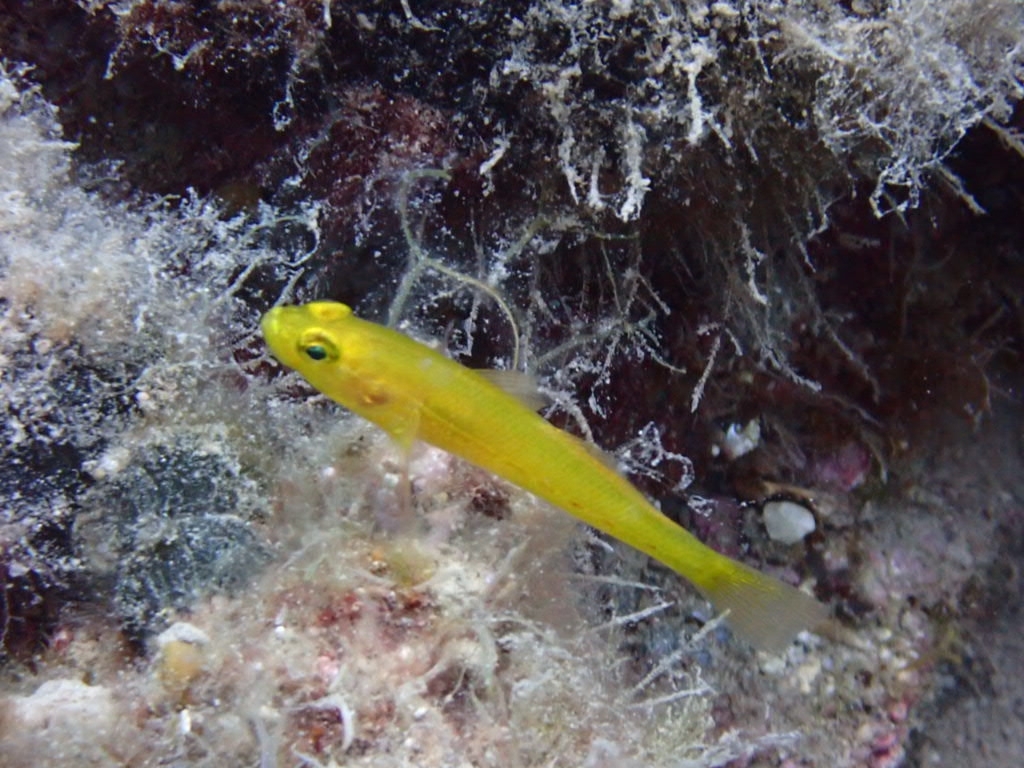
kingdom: Animalia
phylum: Chordata
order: Perciformes
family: Gobiidae
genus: Gobius
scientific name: Gobius auratus
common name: Golden goby
